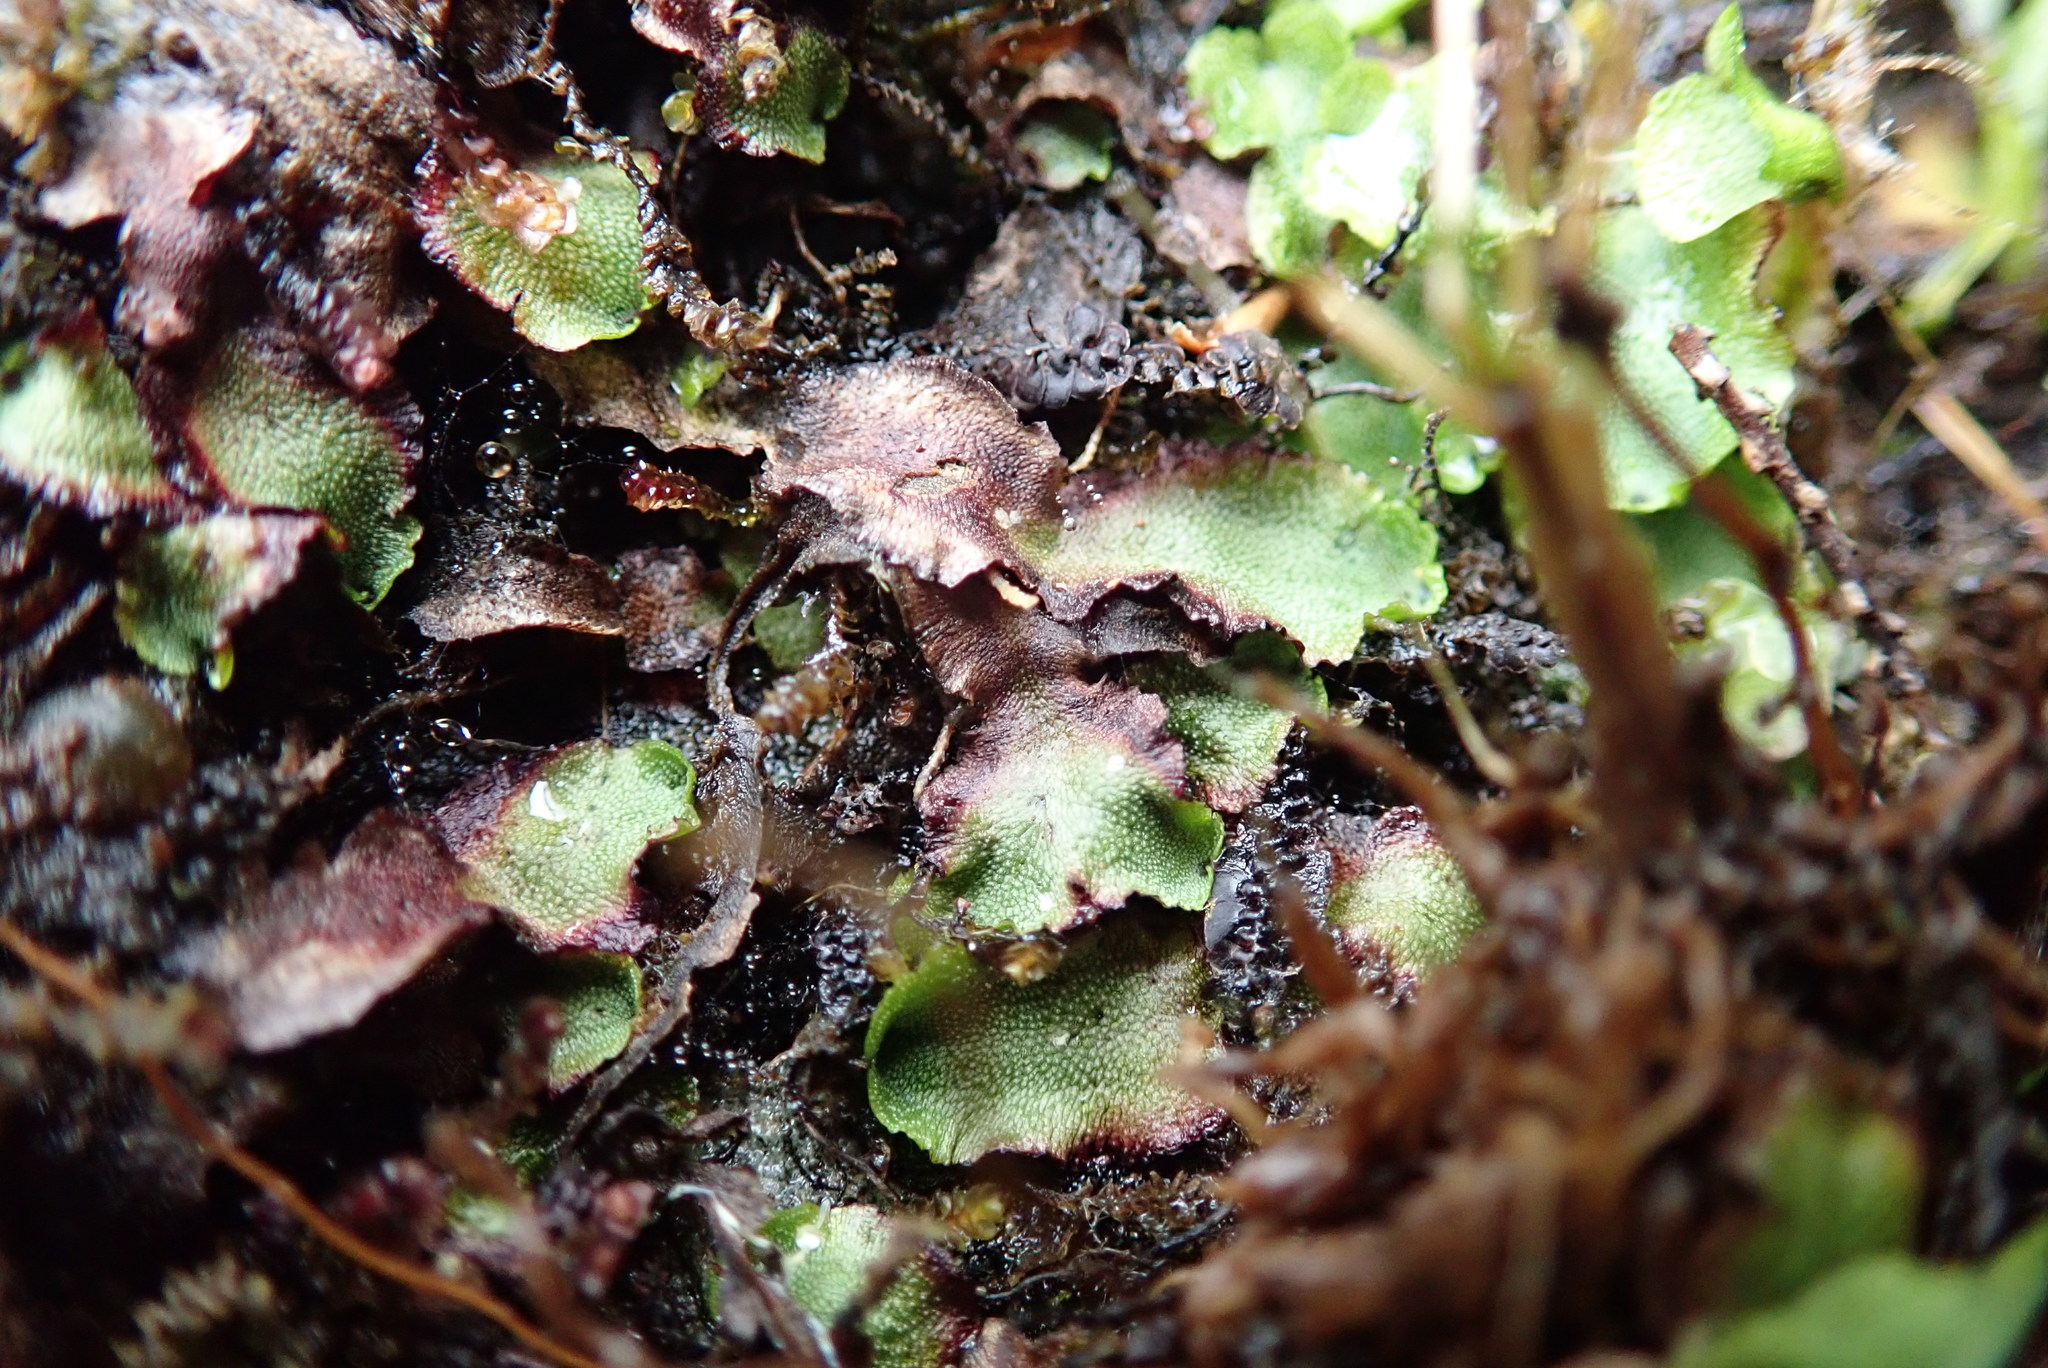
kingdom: Plantae
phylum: Marchantiophyta
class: Marchantiopsida
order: Marchantiales
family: Marchantiaceae
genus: Marchantia
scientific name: Marchantia quadrata
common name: Narrow mushroom-headed liverwort
